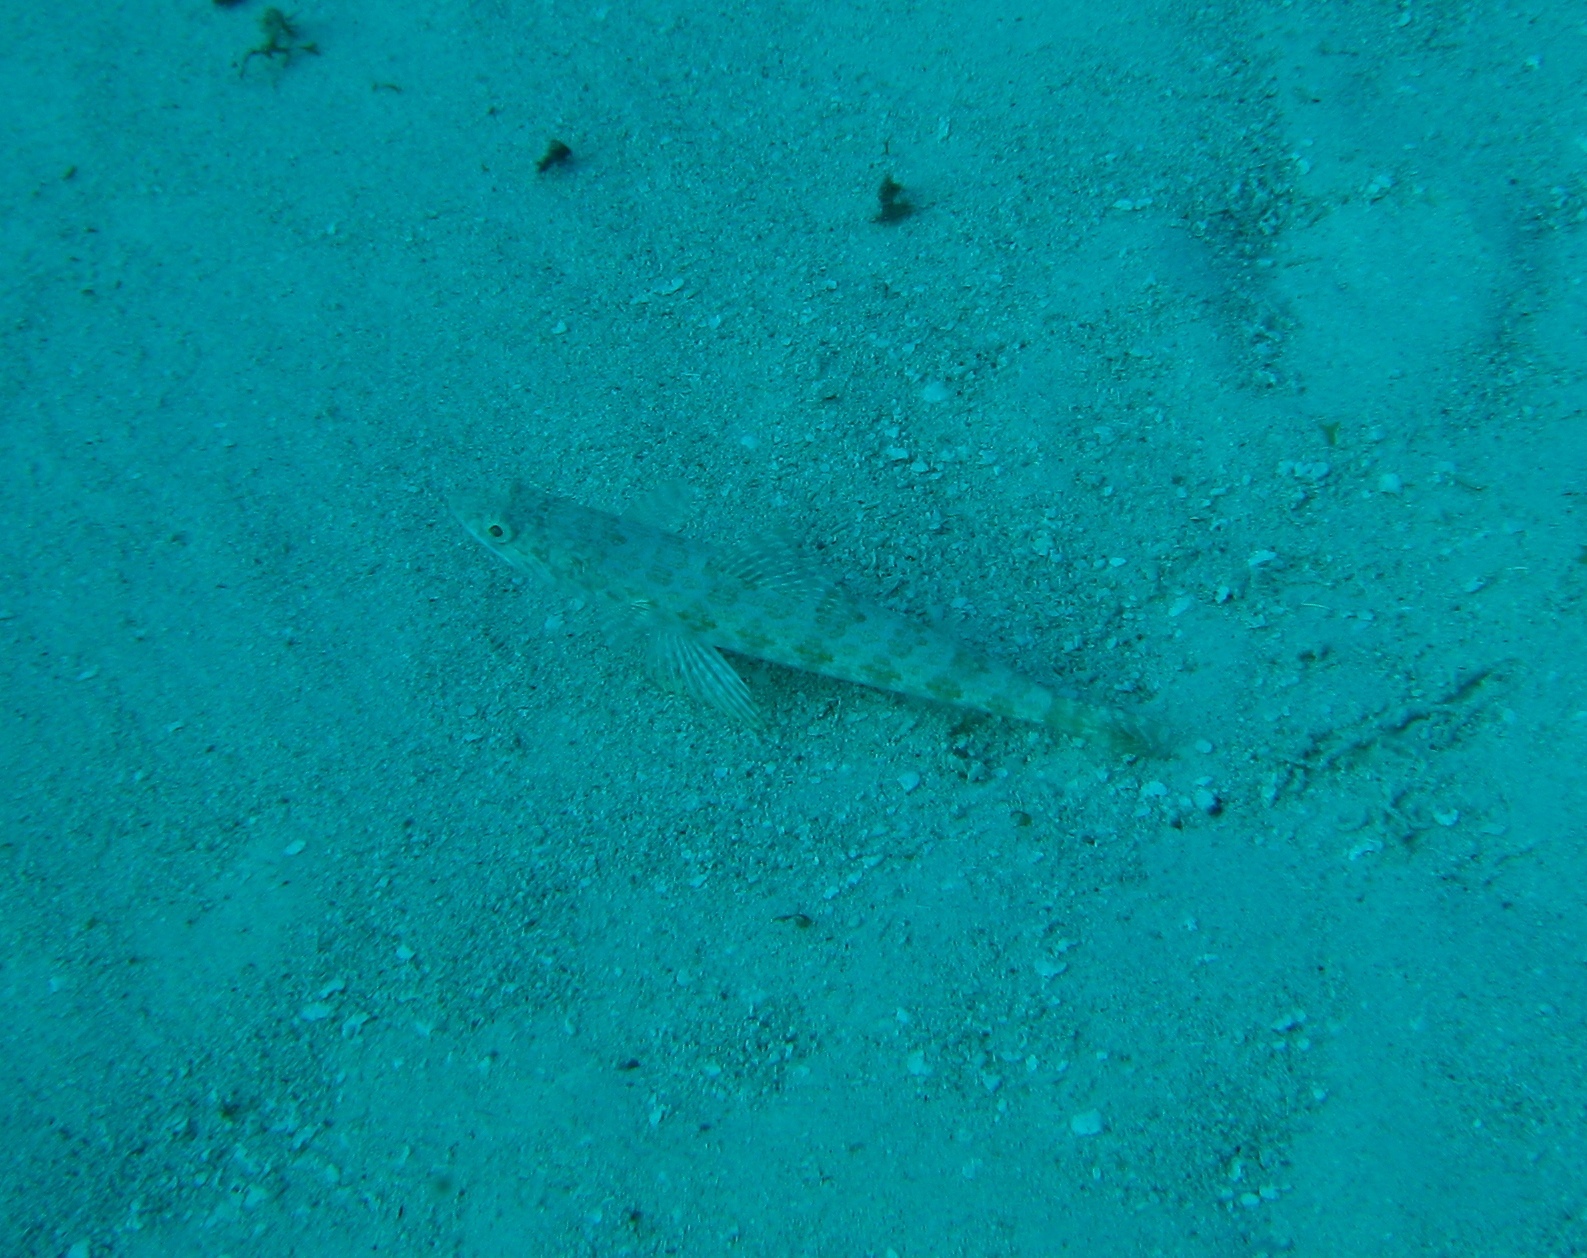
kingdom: Animalia
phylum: Chordata
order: Aulopiformes
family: Synodontidae
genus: Synodus
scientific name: Synodus intermedius
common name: Sand diver
